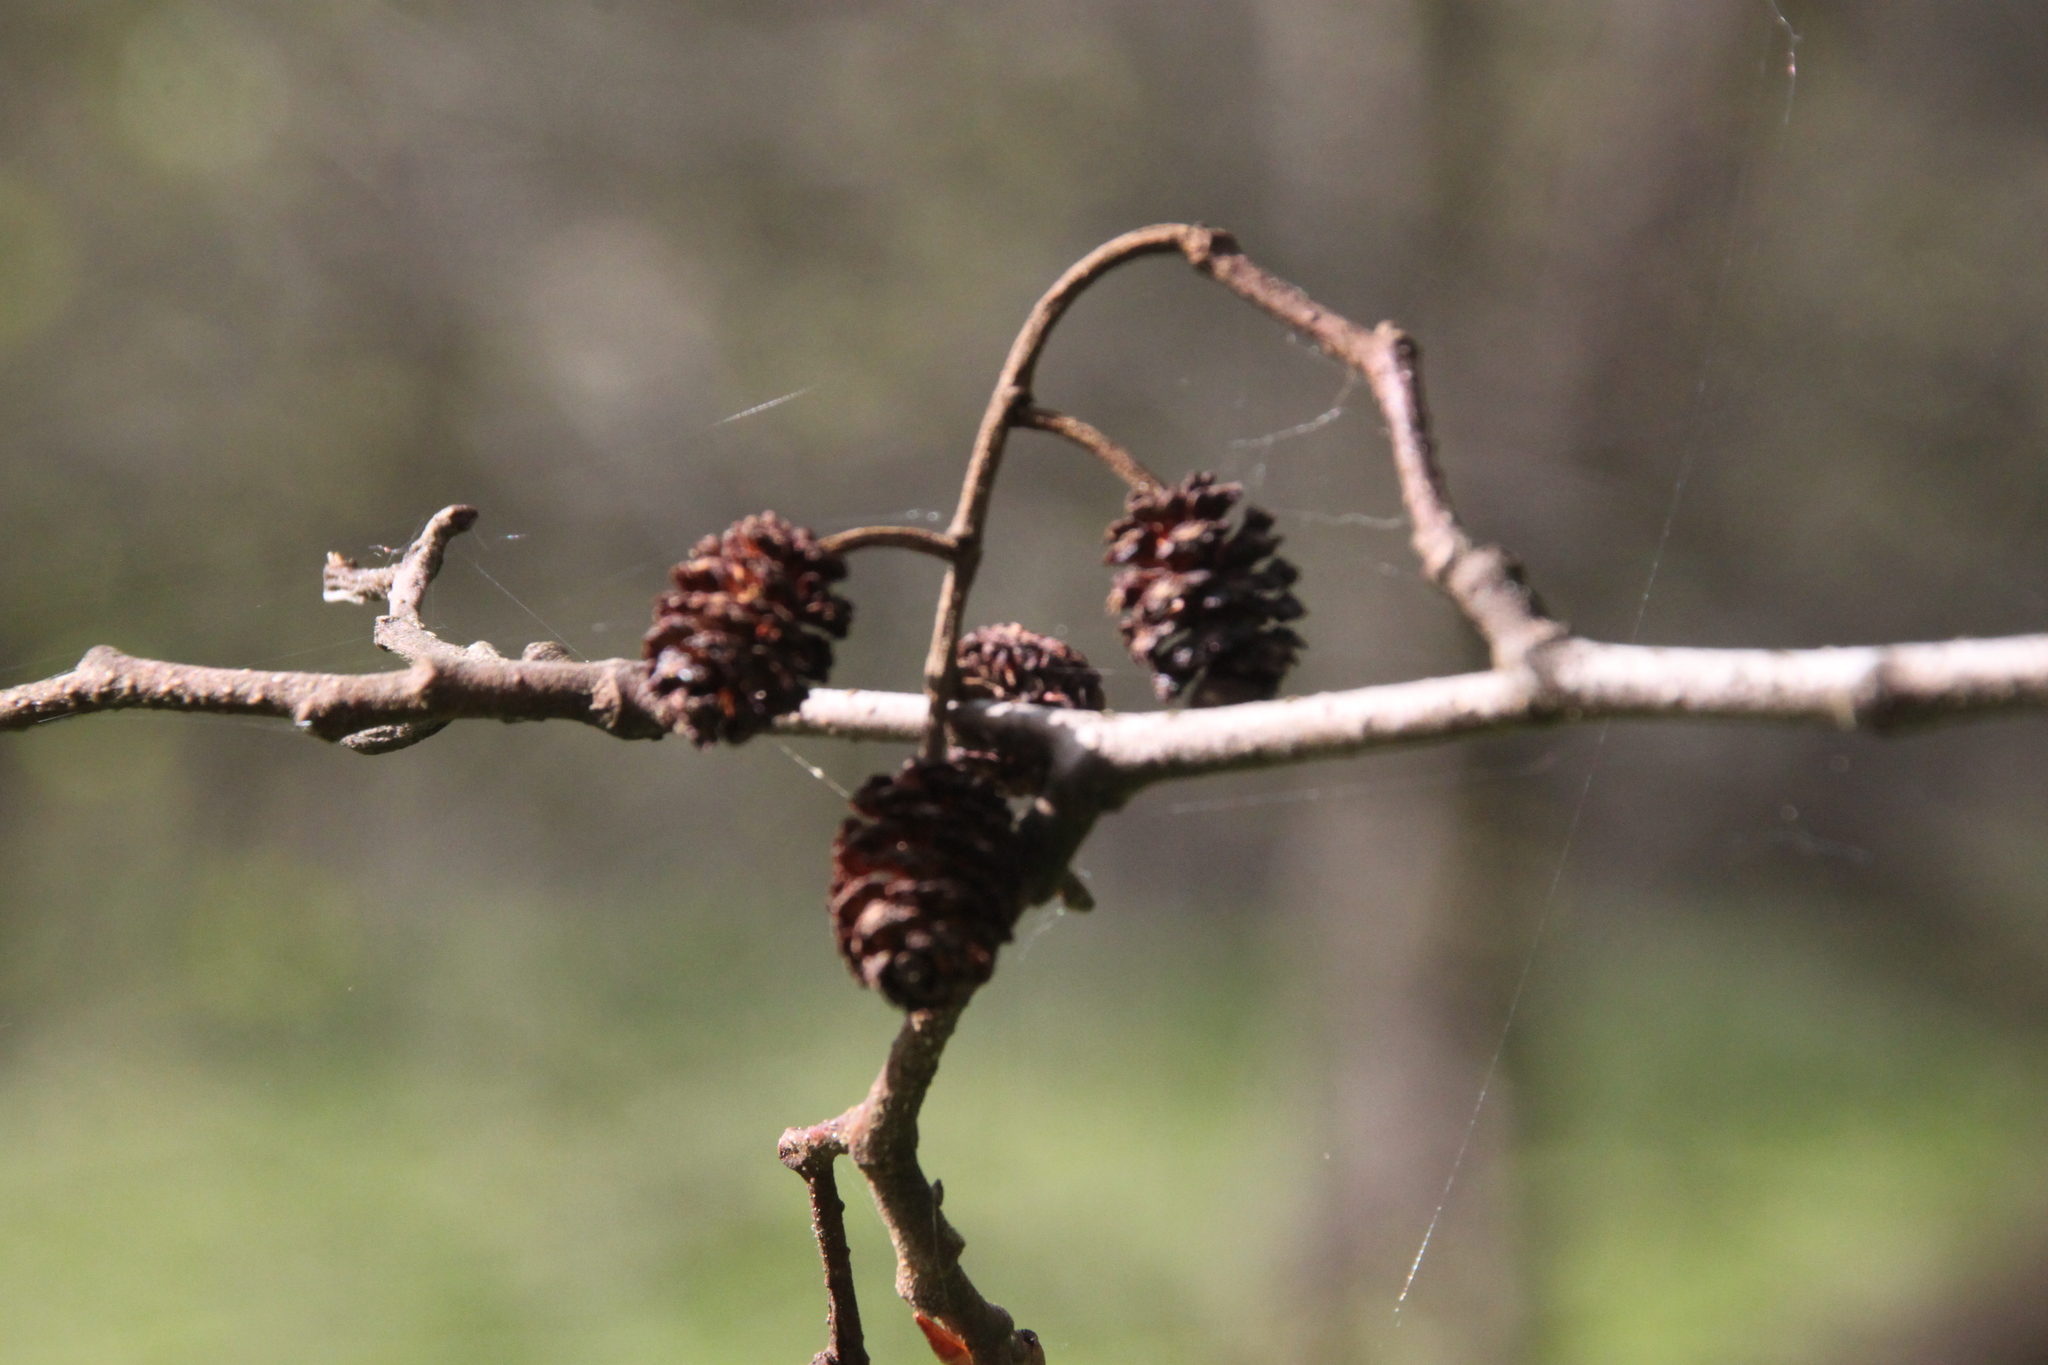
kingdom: Plantae
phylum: Tracheophyta
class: Magnoliopsida
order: Fagales
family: Betulaceae
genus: Alnus
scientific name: Alnus glutinosa
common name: Black alder
